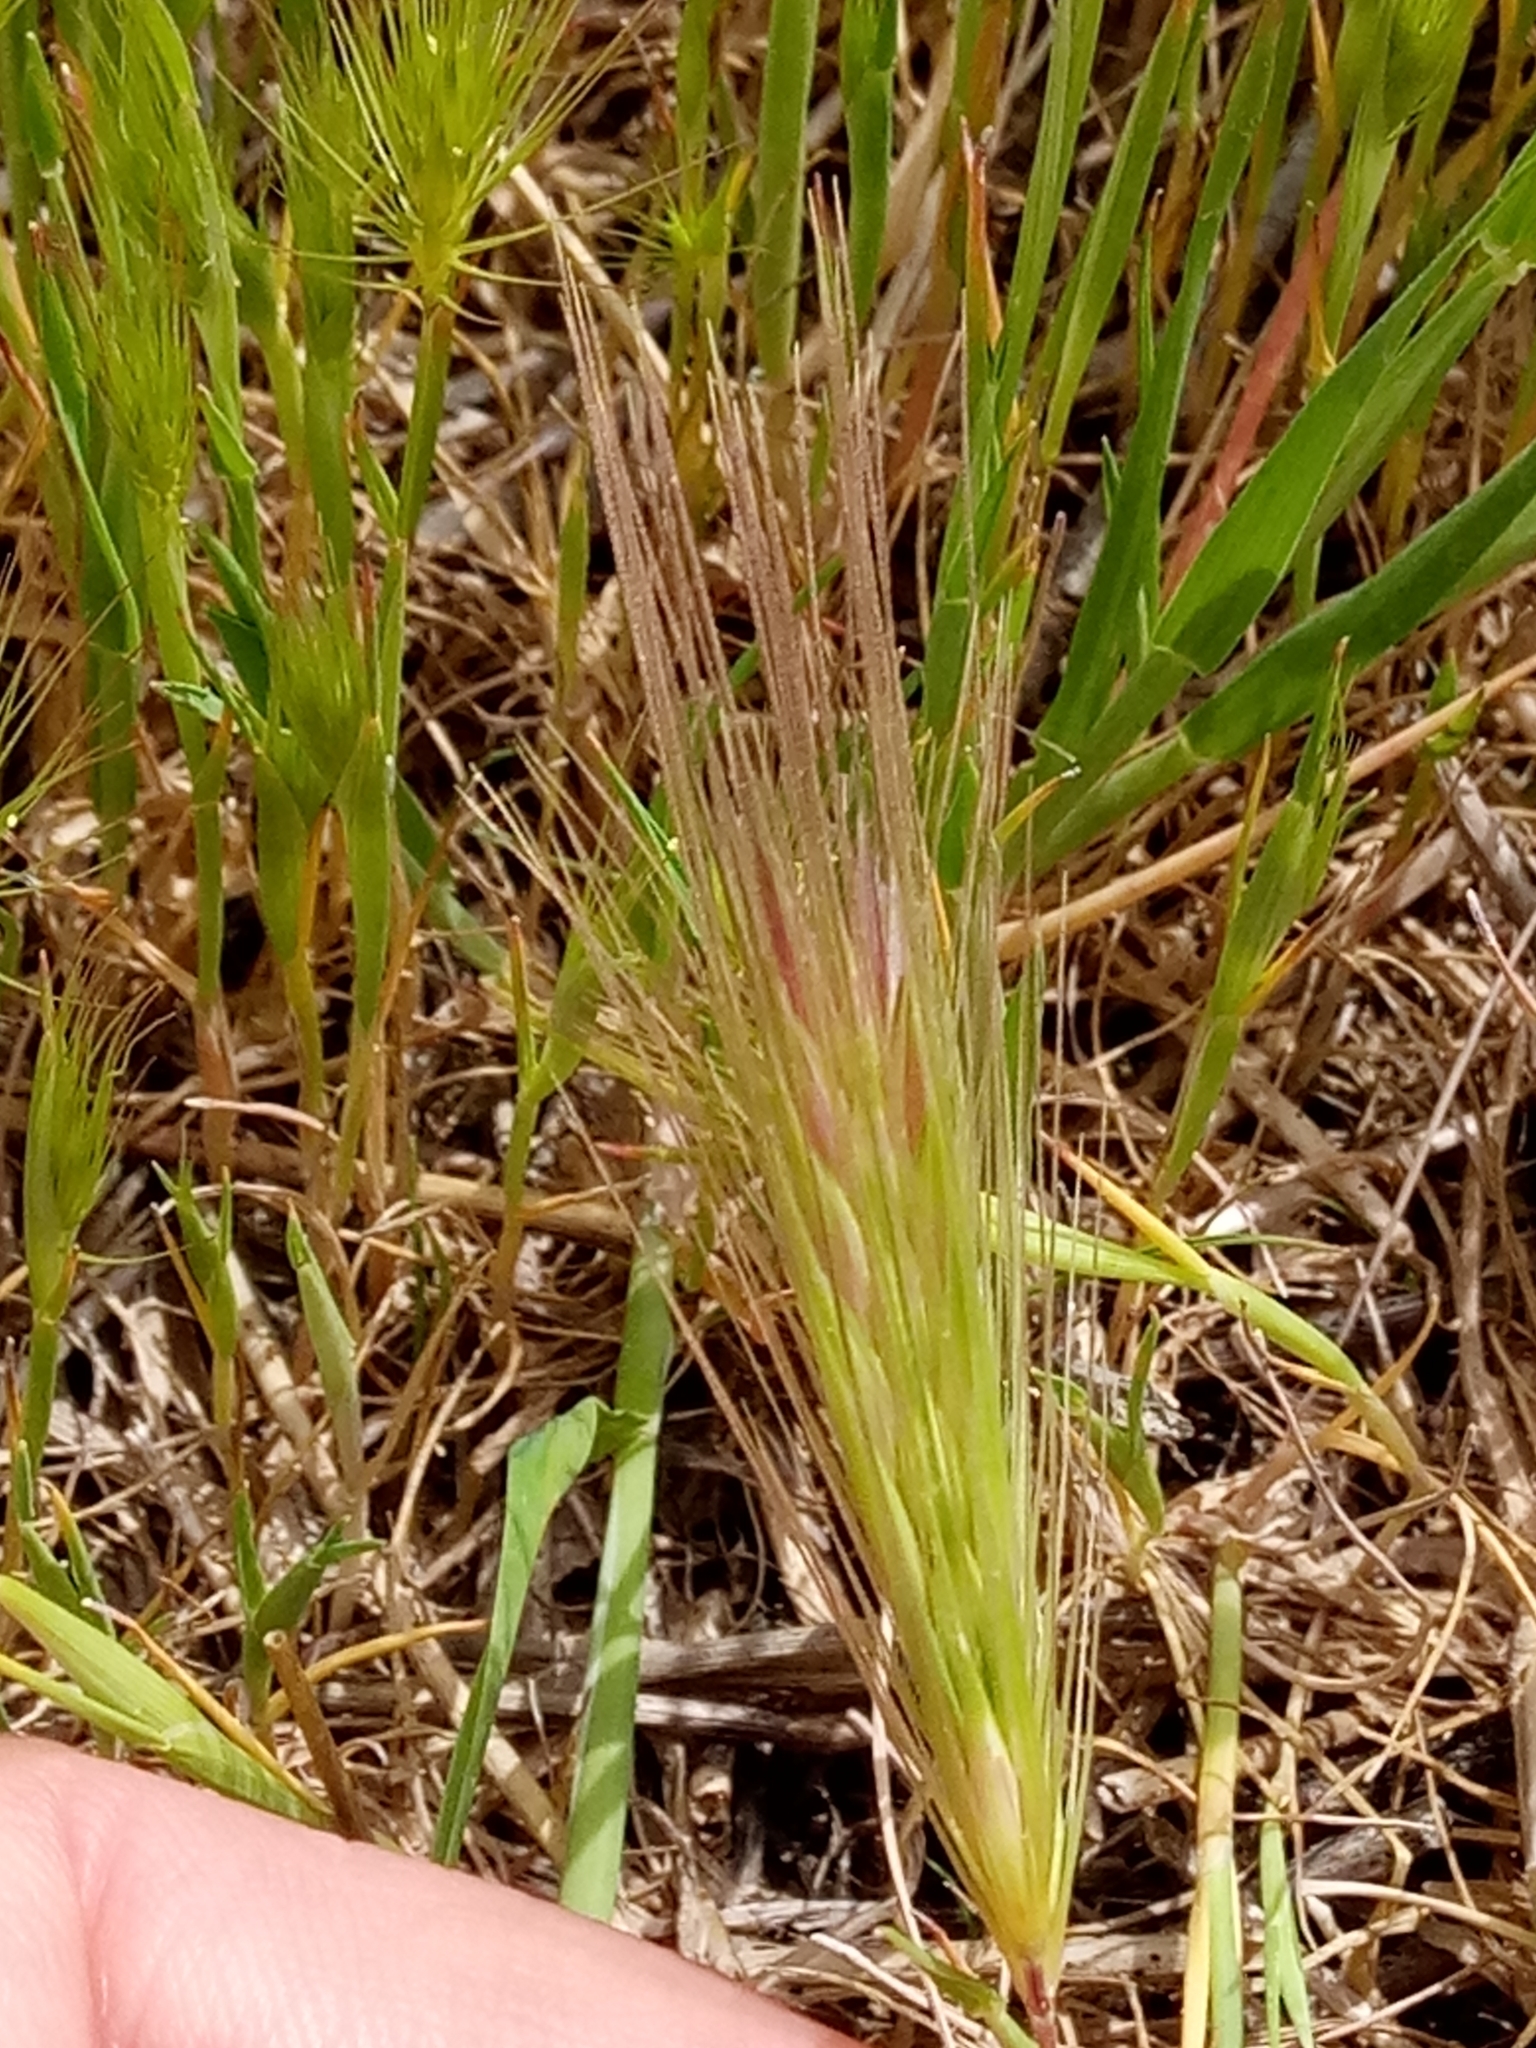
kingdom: Plantae
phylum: Tracheophyta
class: Liliopsida
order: Poales
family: Poaceae
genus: Hordeum
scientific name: Hordeum marinum
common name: Sea barley
